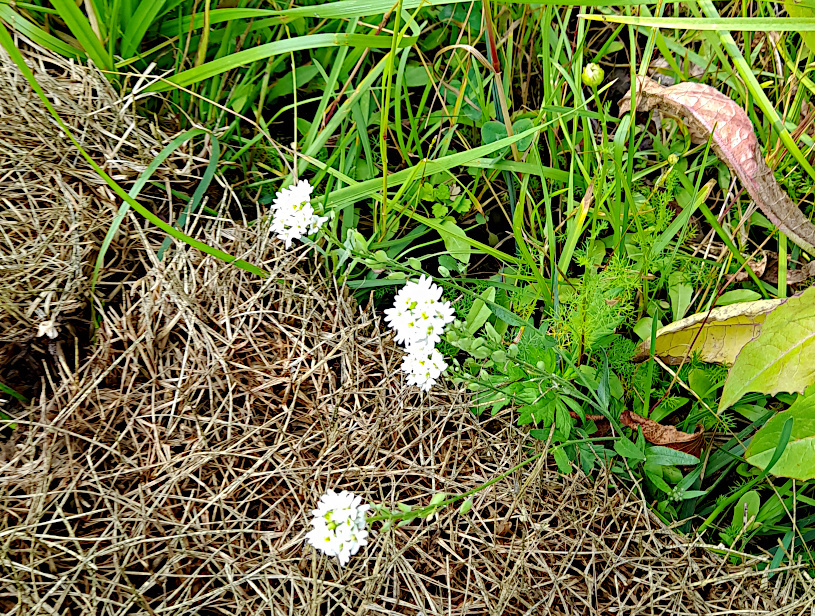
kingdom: Plantae
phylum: Tracheophyta
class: Magnoliopsida
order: Brassicales
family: Brassicaceae
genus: Berteroa
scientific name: Berteroa incana
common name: Hoary alison
